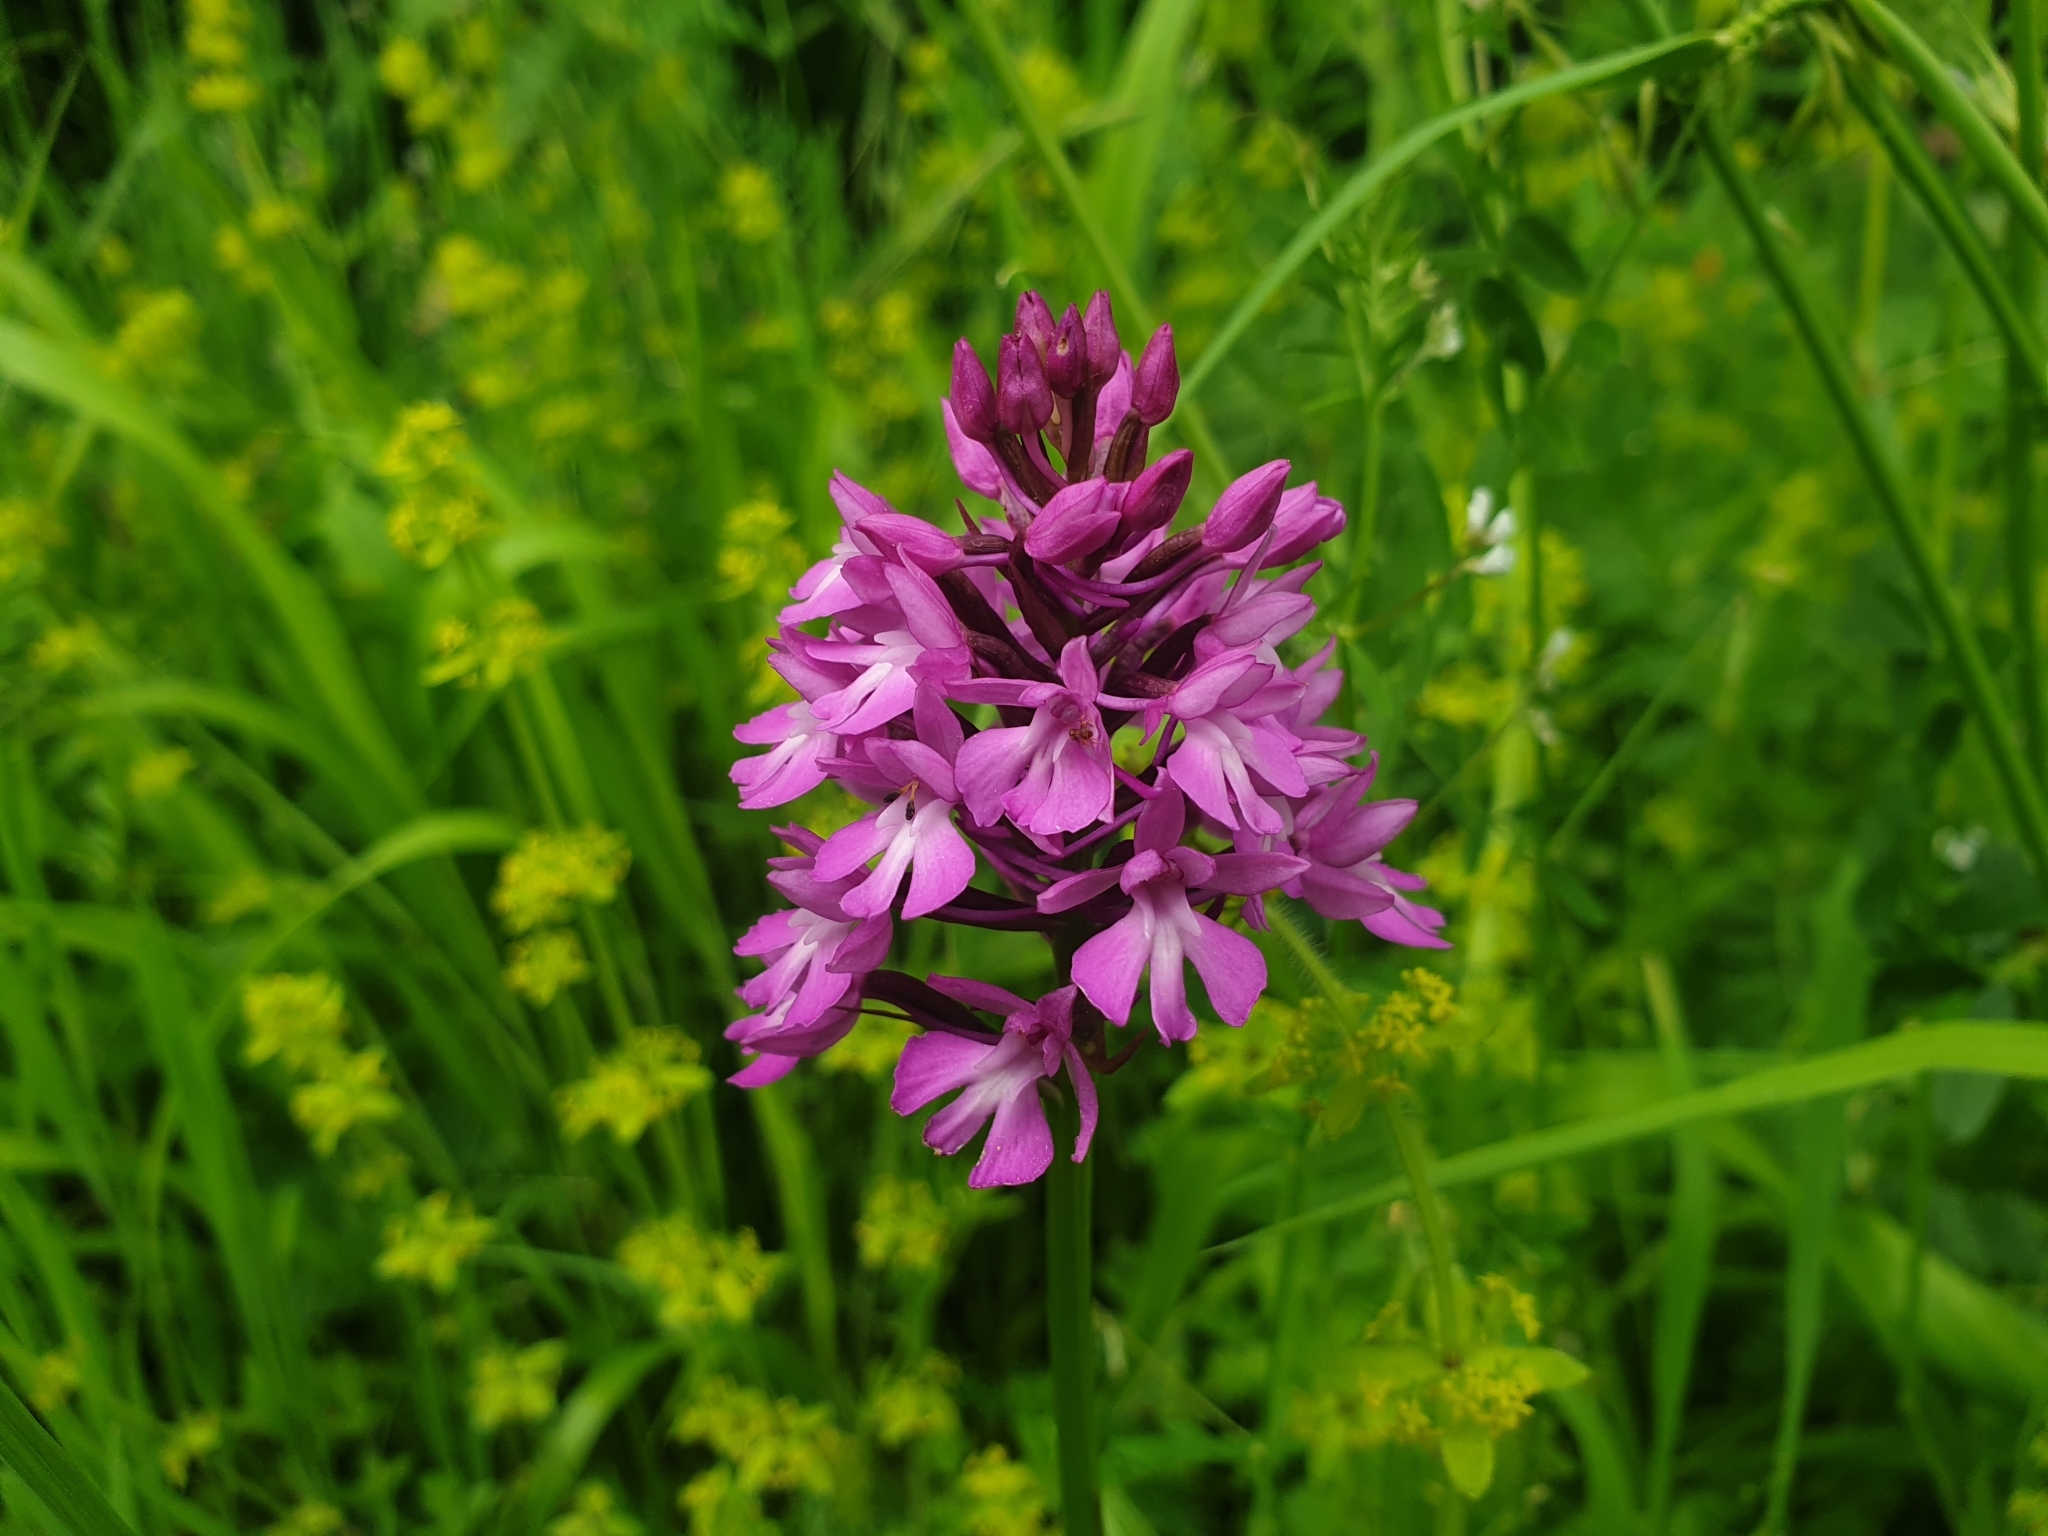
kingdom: Plantae
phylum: Tracheophyta
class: Liliopsida
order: Asparagales
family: Orchidaceae
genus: Anacamptis
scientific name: Anacamptis pyramidalis
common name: Pyramidal orchid
